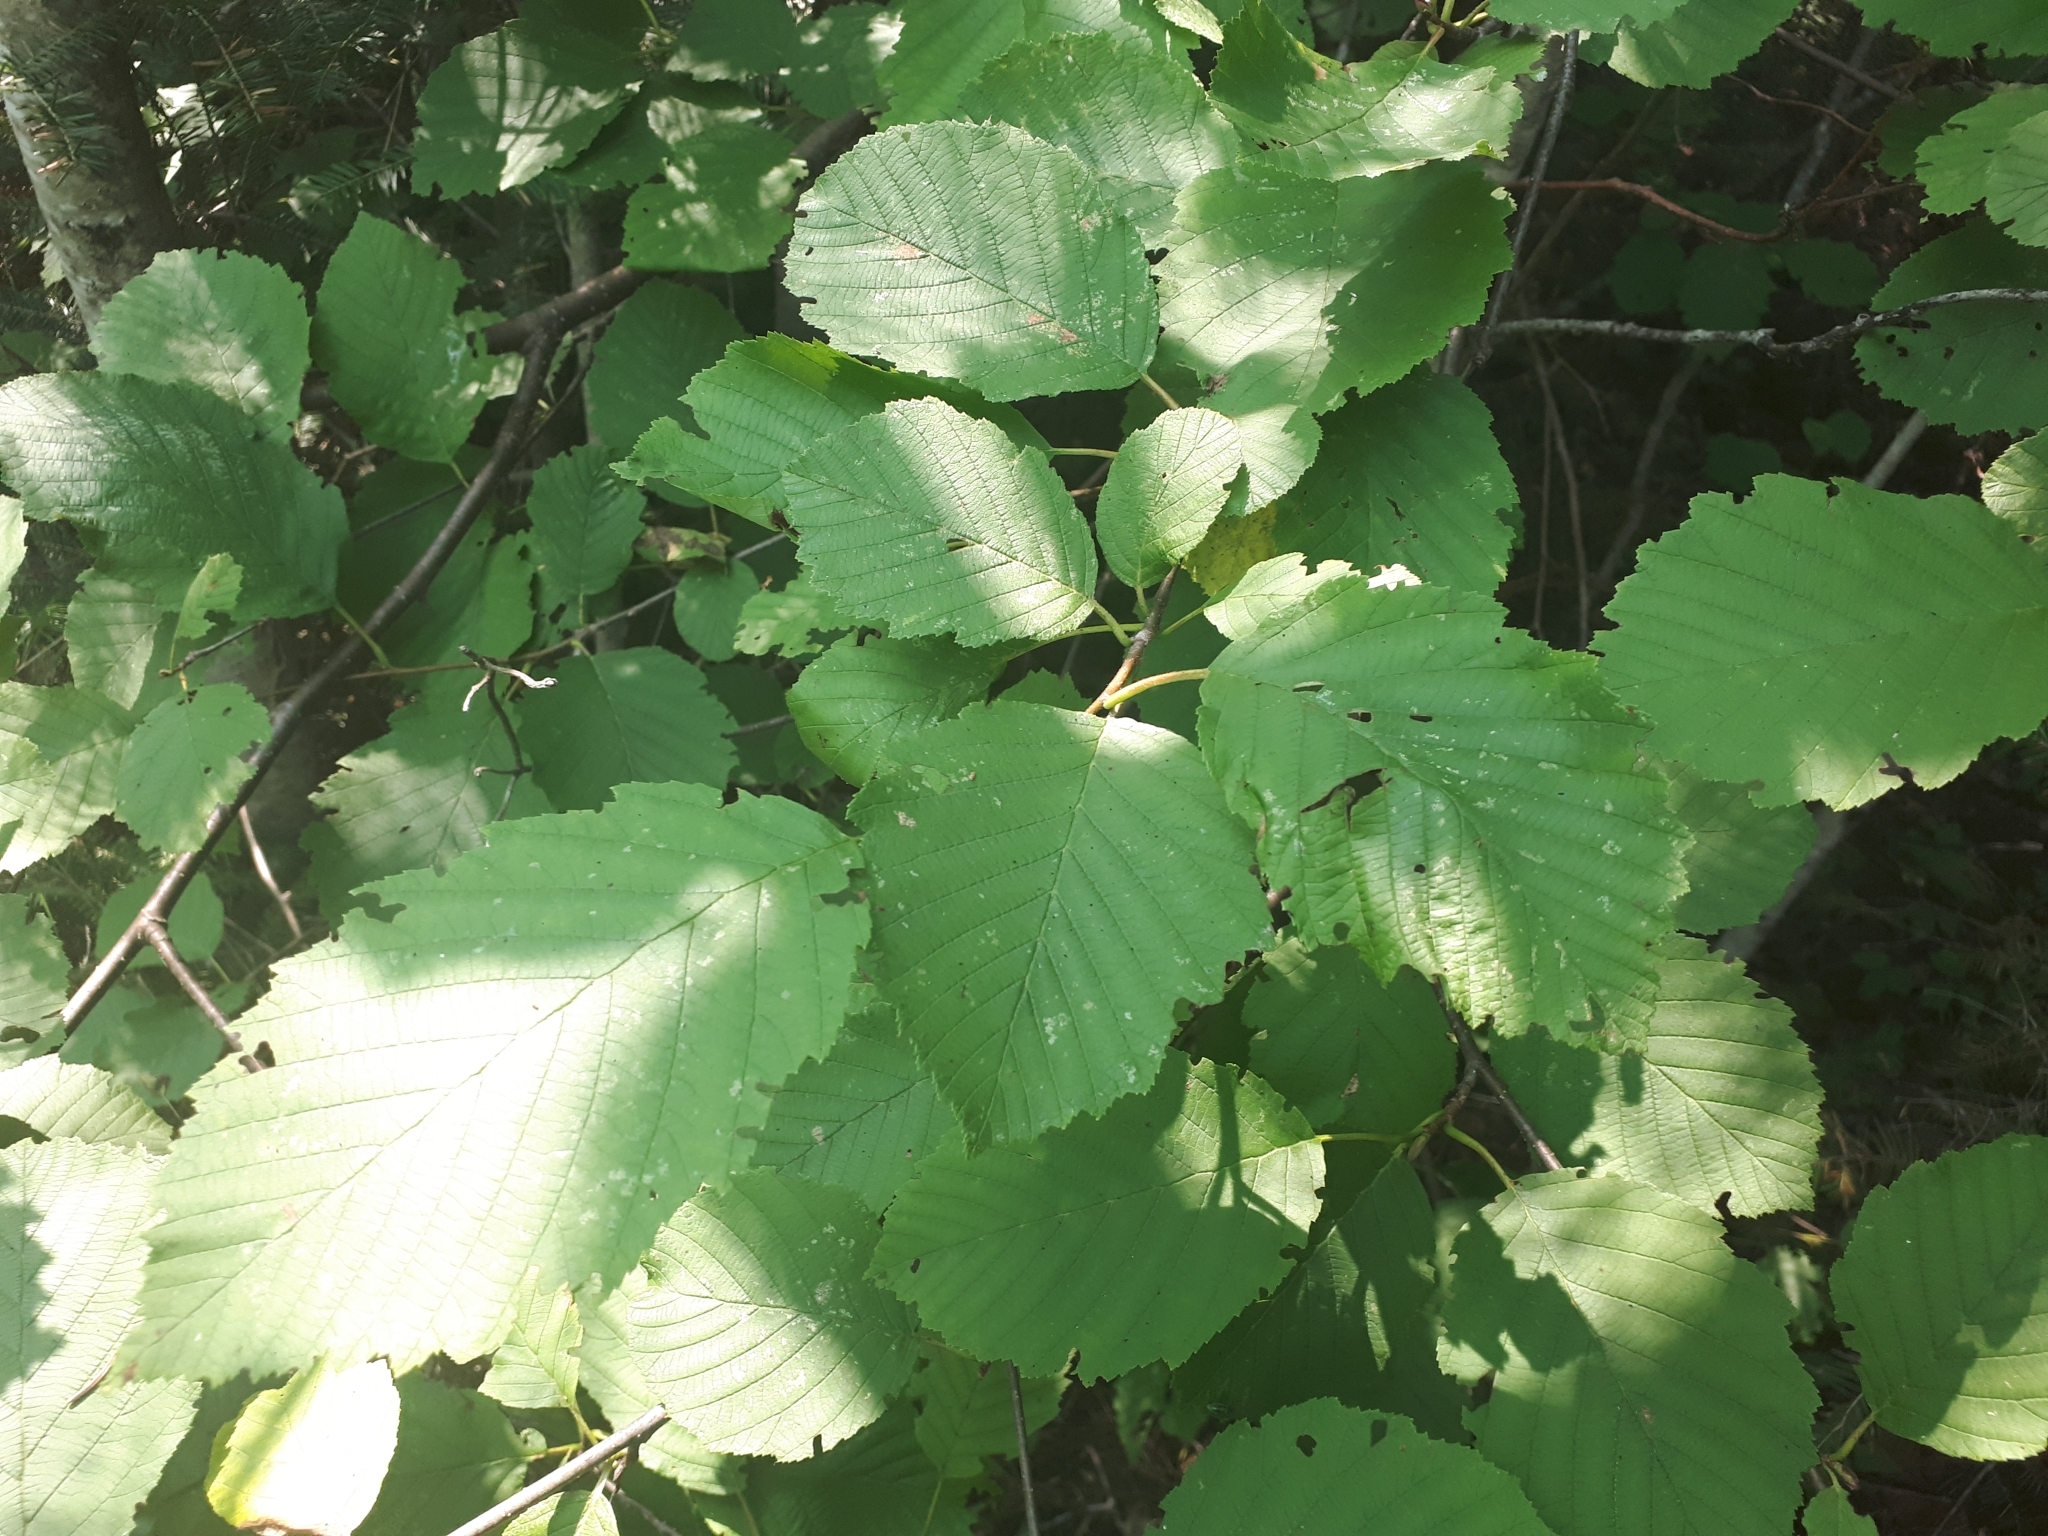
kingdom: Plantae
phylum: Tracheophyta
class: Magnoliopsida
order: Fagales
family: Betulaceae
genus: Alnus
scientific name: Alnus incana
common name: Grey alder
